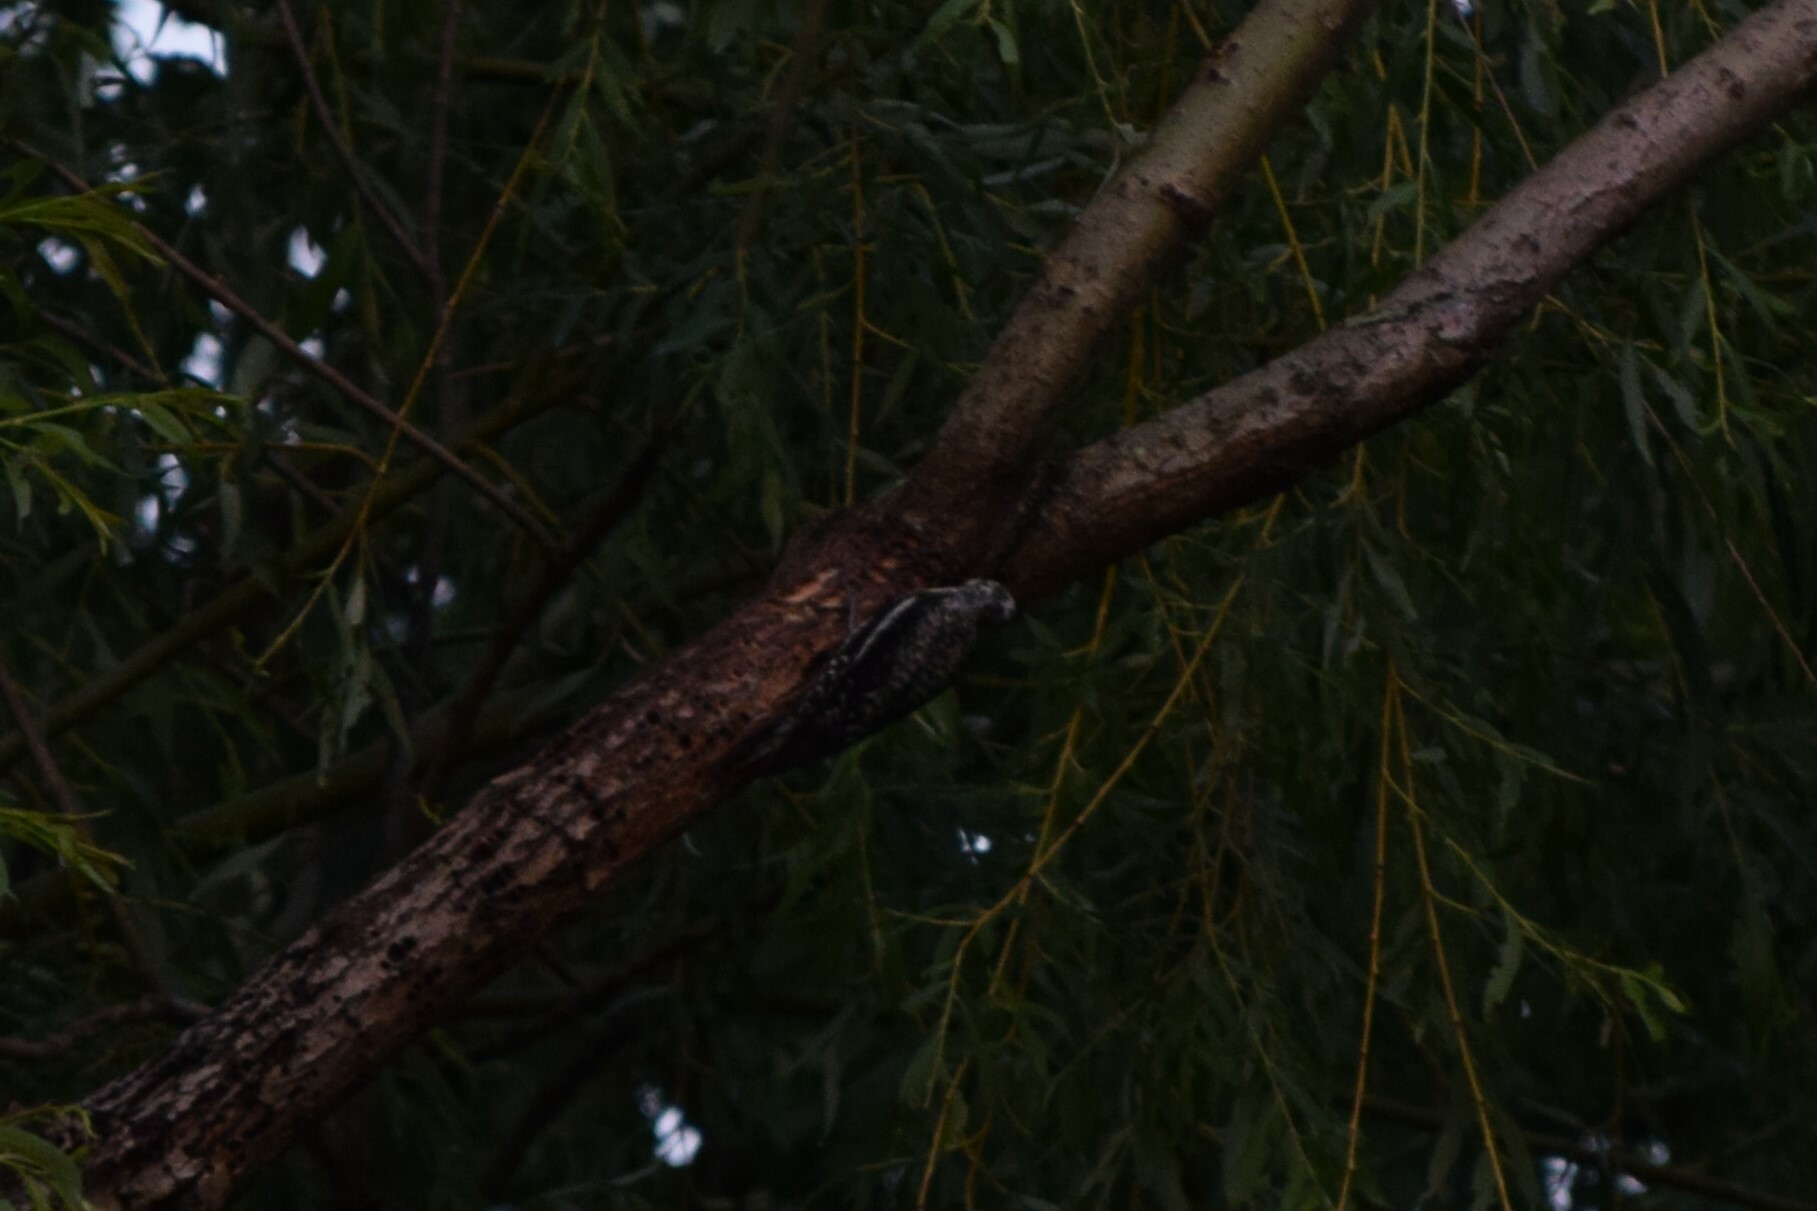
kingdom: Animalia
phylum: Chordata
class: Aves
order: Piciformes
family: Picidae
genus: Sphyrapicus
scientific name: Sphyrapicus varius
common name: Yellow-bellied sapsucker
